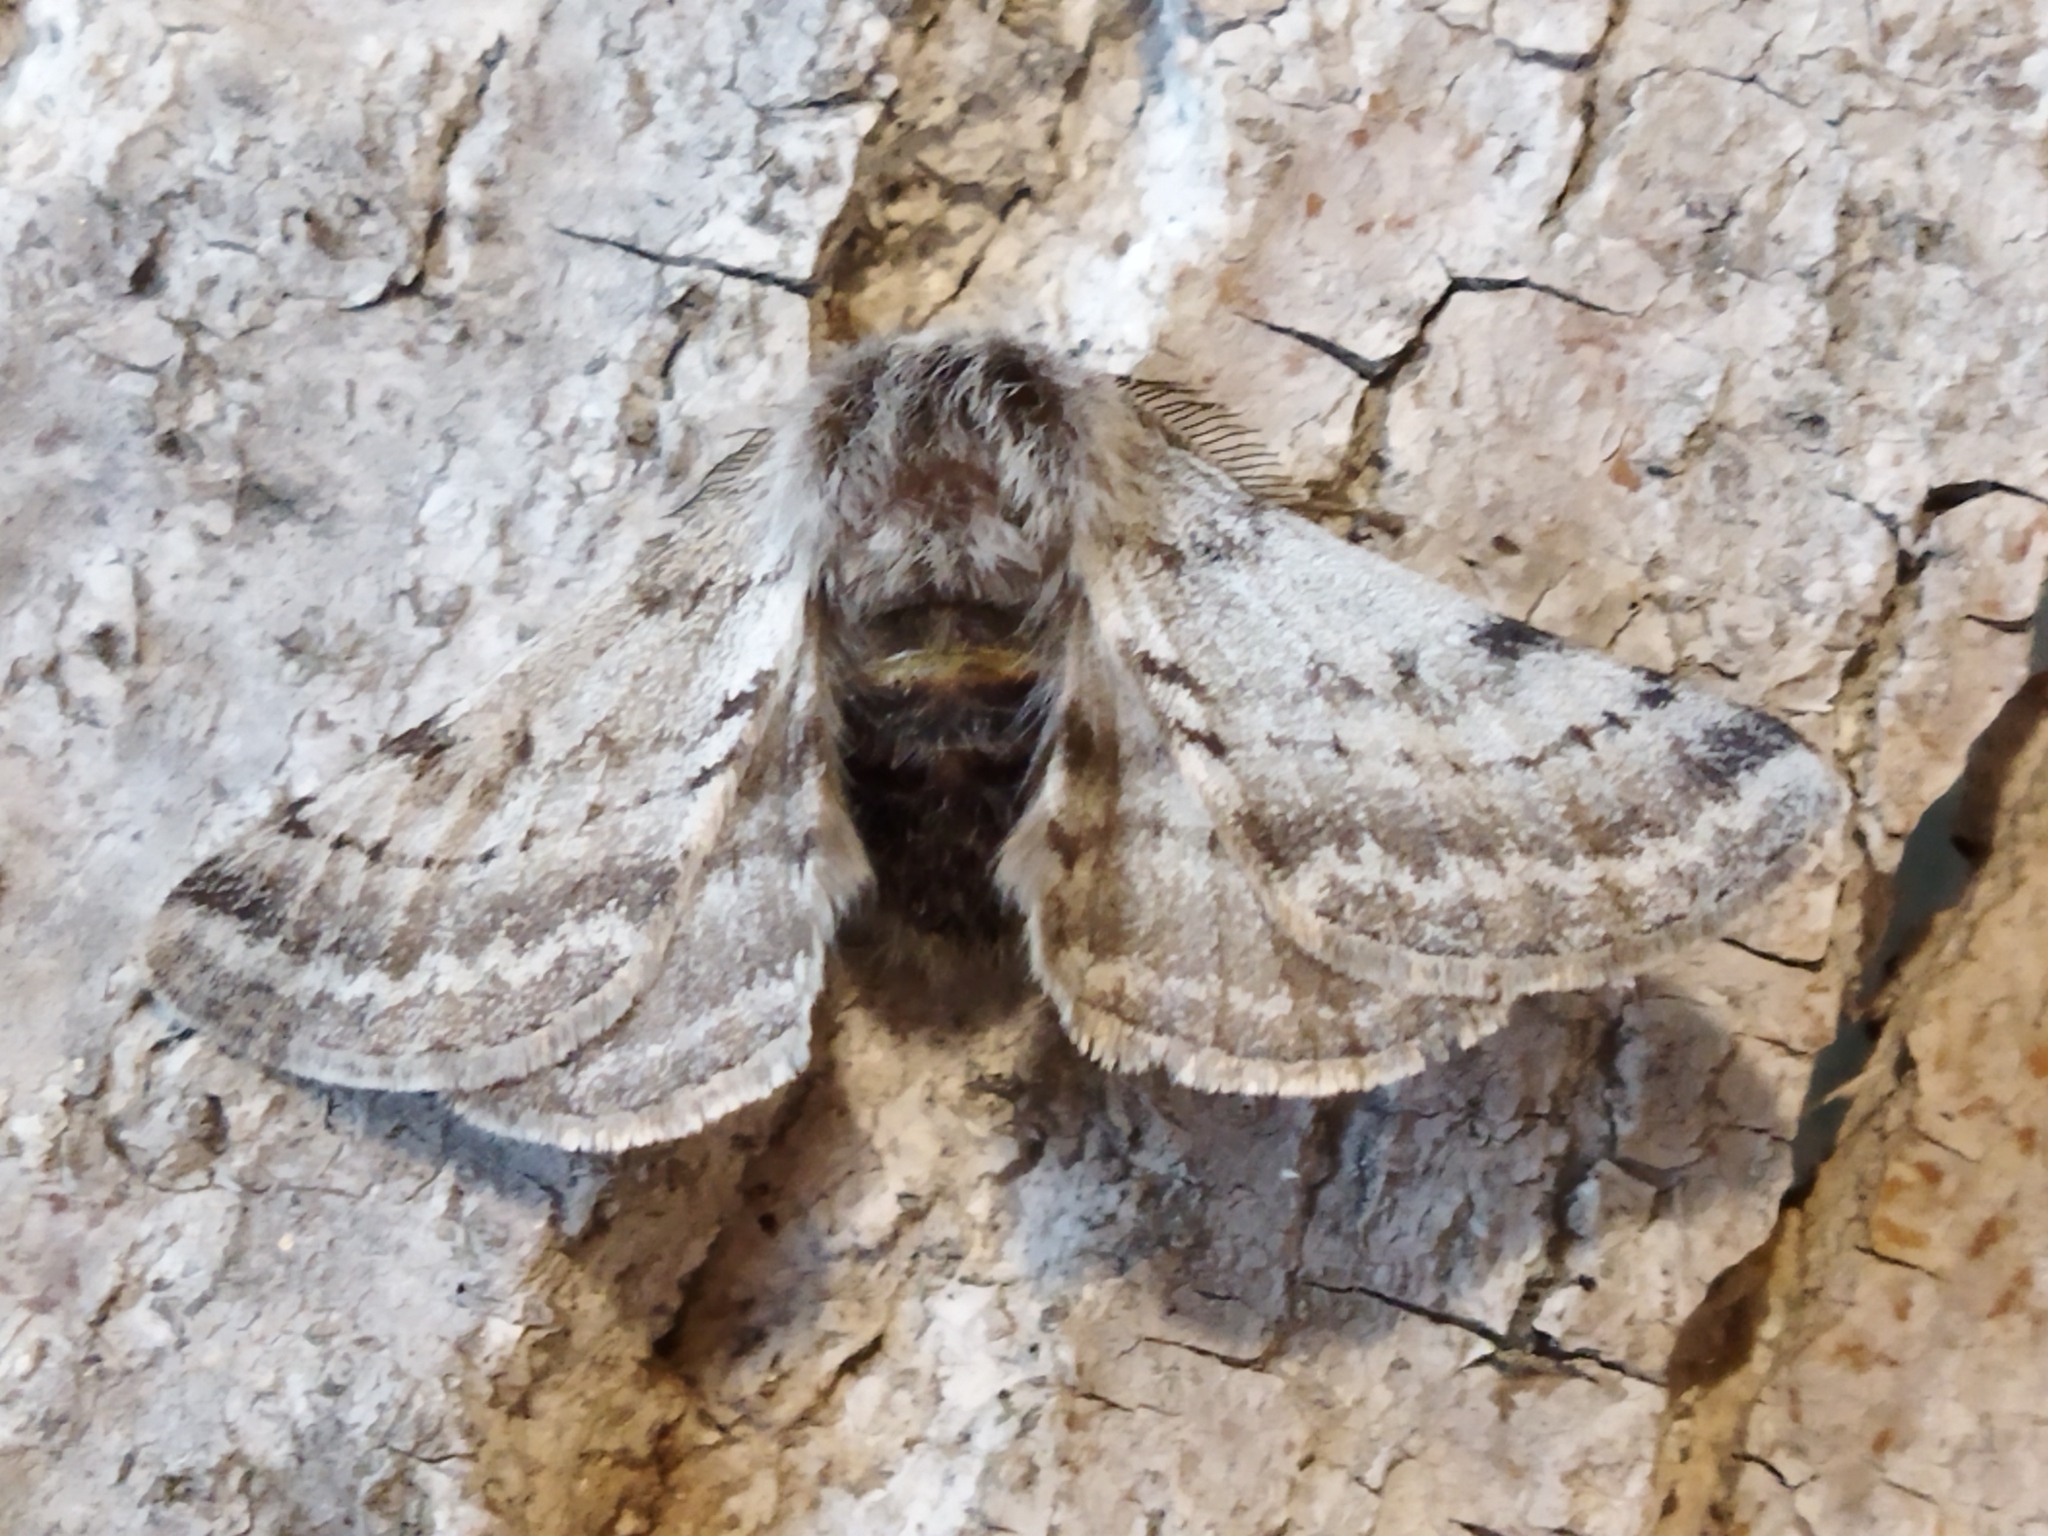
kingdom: Animalia
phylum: Arthropoda
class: Insecta
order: Lepidoptera
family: Geometridae
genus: Lycia
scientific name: Lycia graecarius
